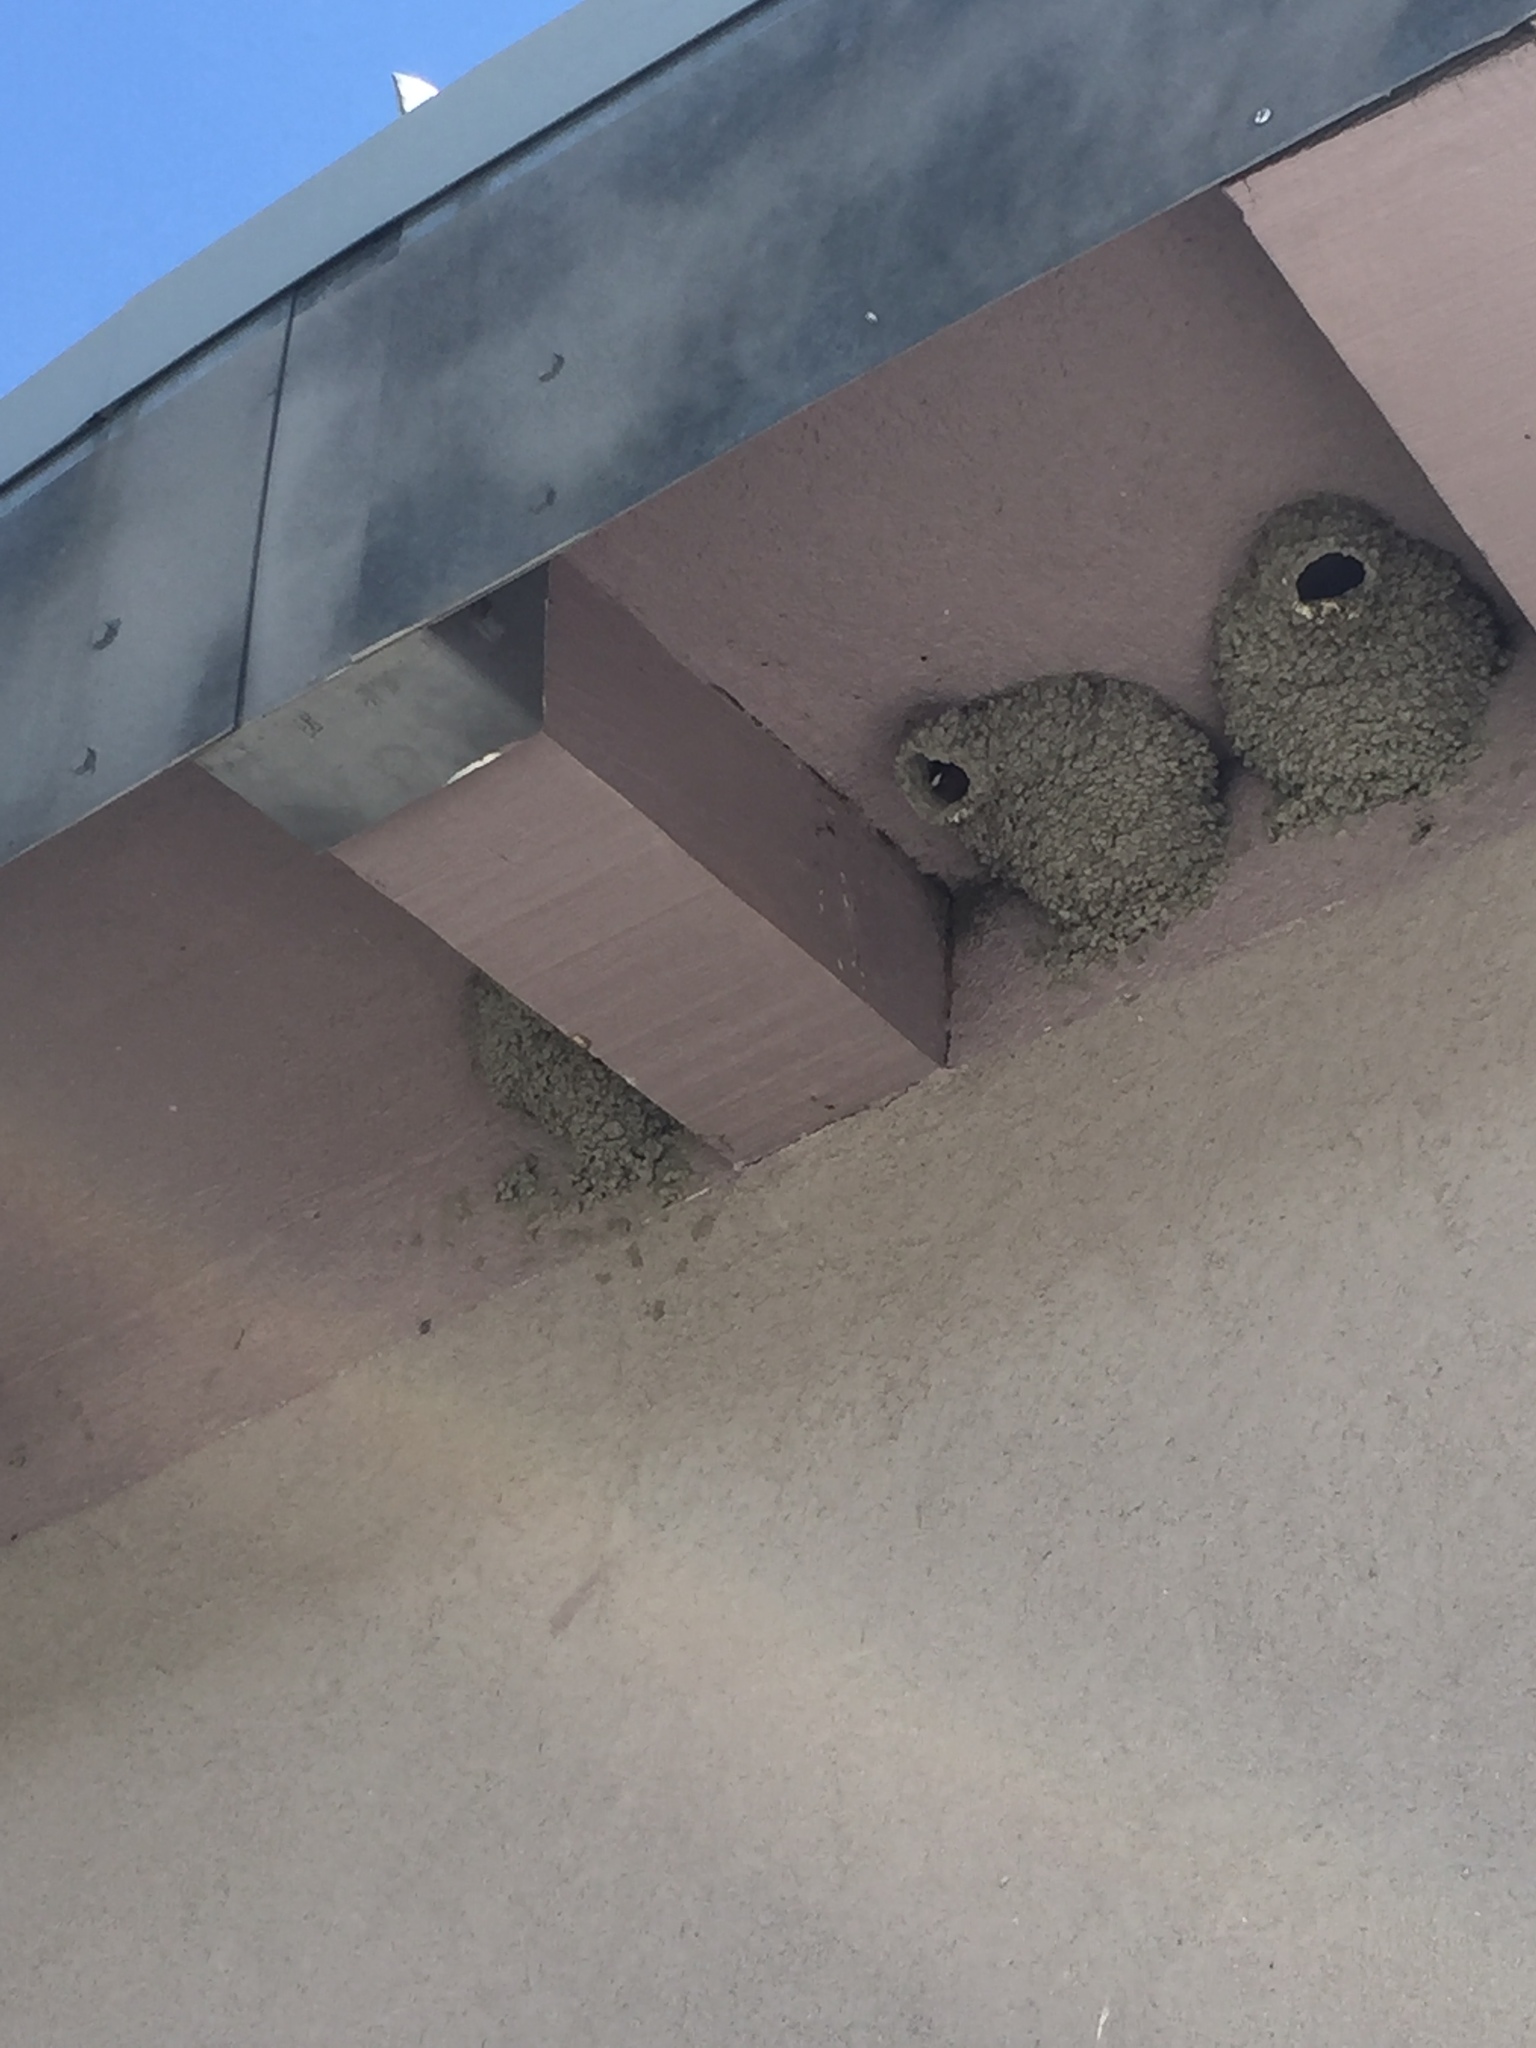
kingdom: Animalia
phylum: Chordata
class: Aves
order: Passeriformes
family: Hirundinidae
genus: Petrochelidon
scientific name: Petrochelidon pyrrhonota
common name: American cliff swallow
